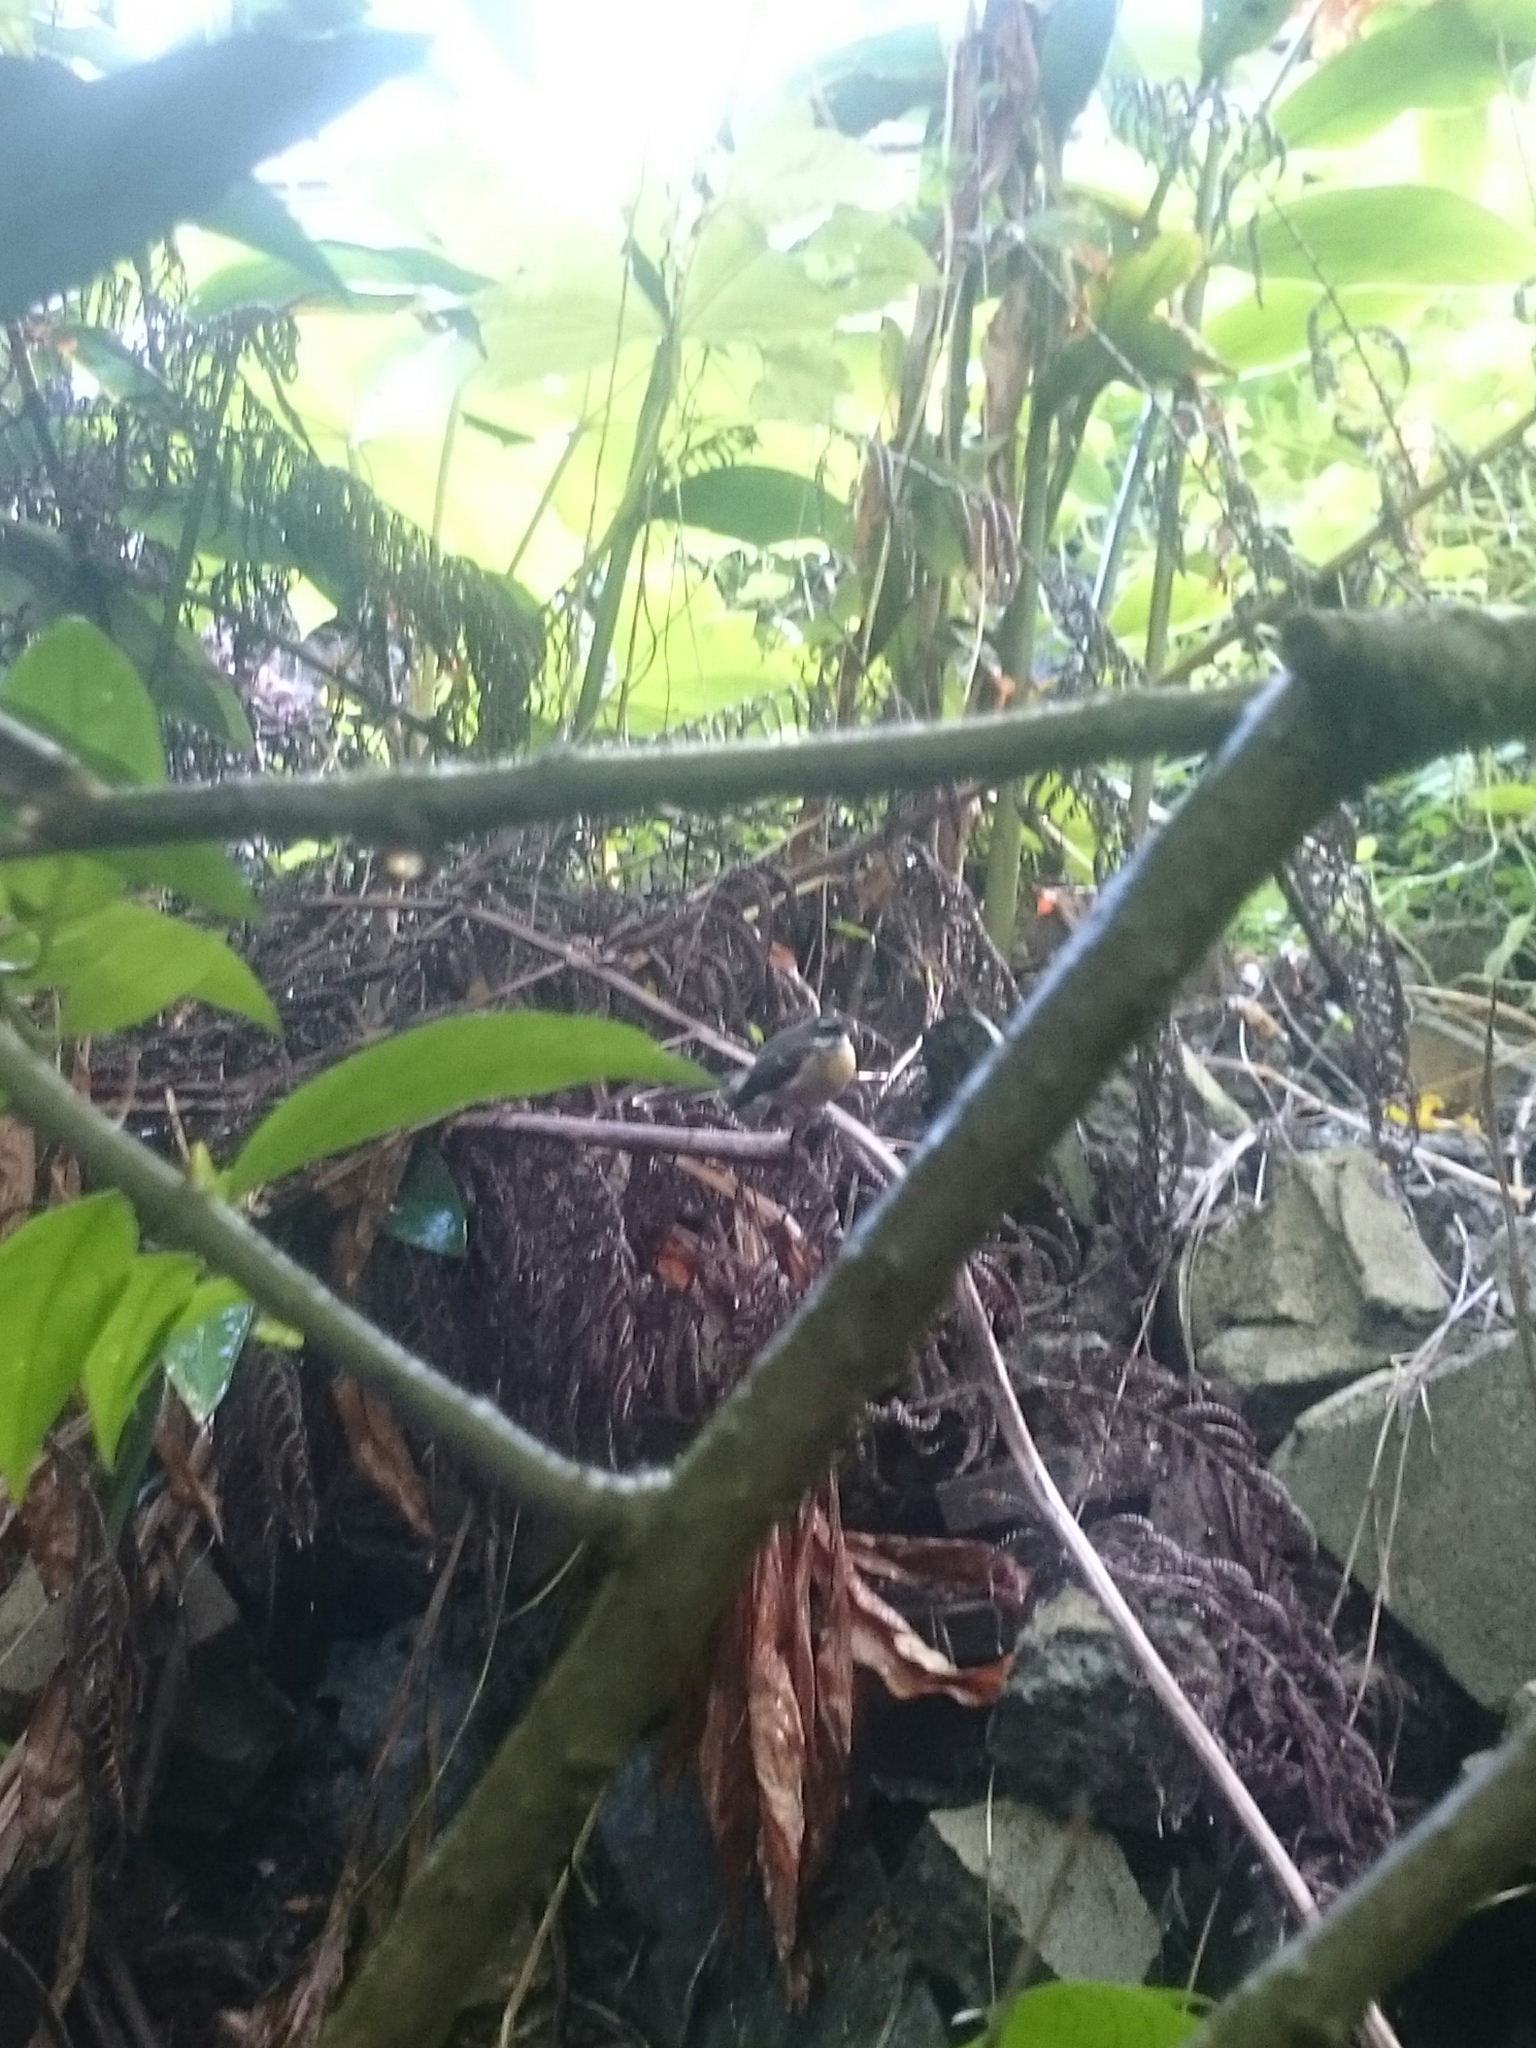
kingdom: Animalia
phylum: Chordata
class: Aves
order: Passeriformes
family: Rhipiduridae
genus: Rhipidura
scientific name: Rhipidura fuliginosa
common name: New zealand fantail
